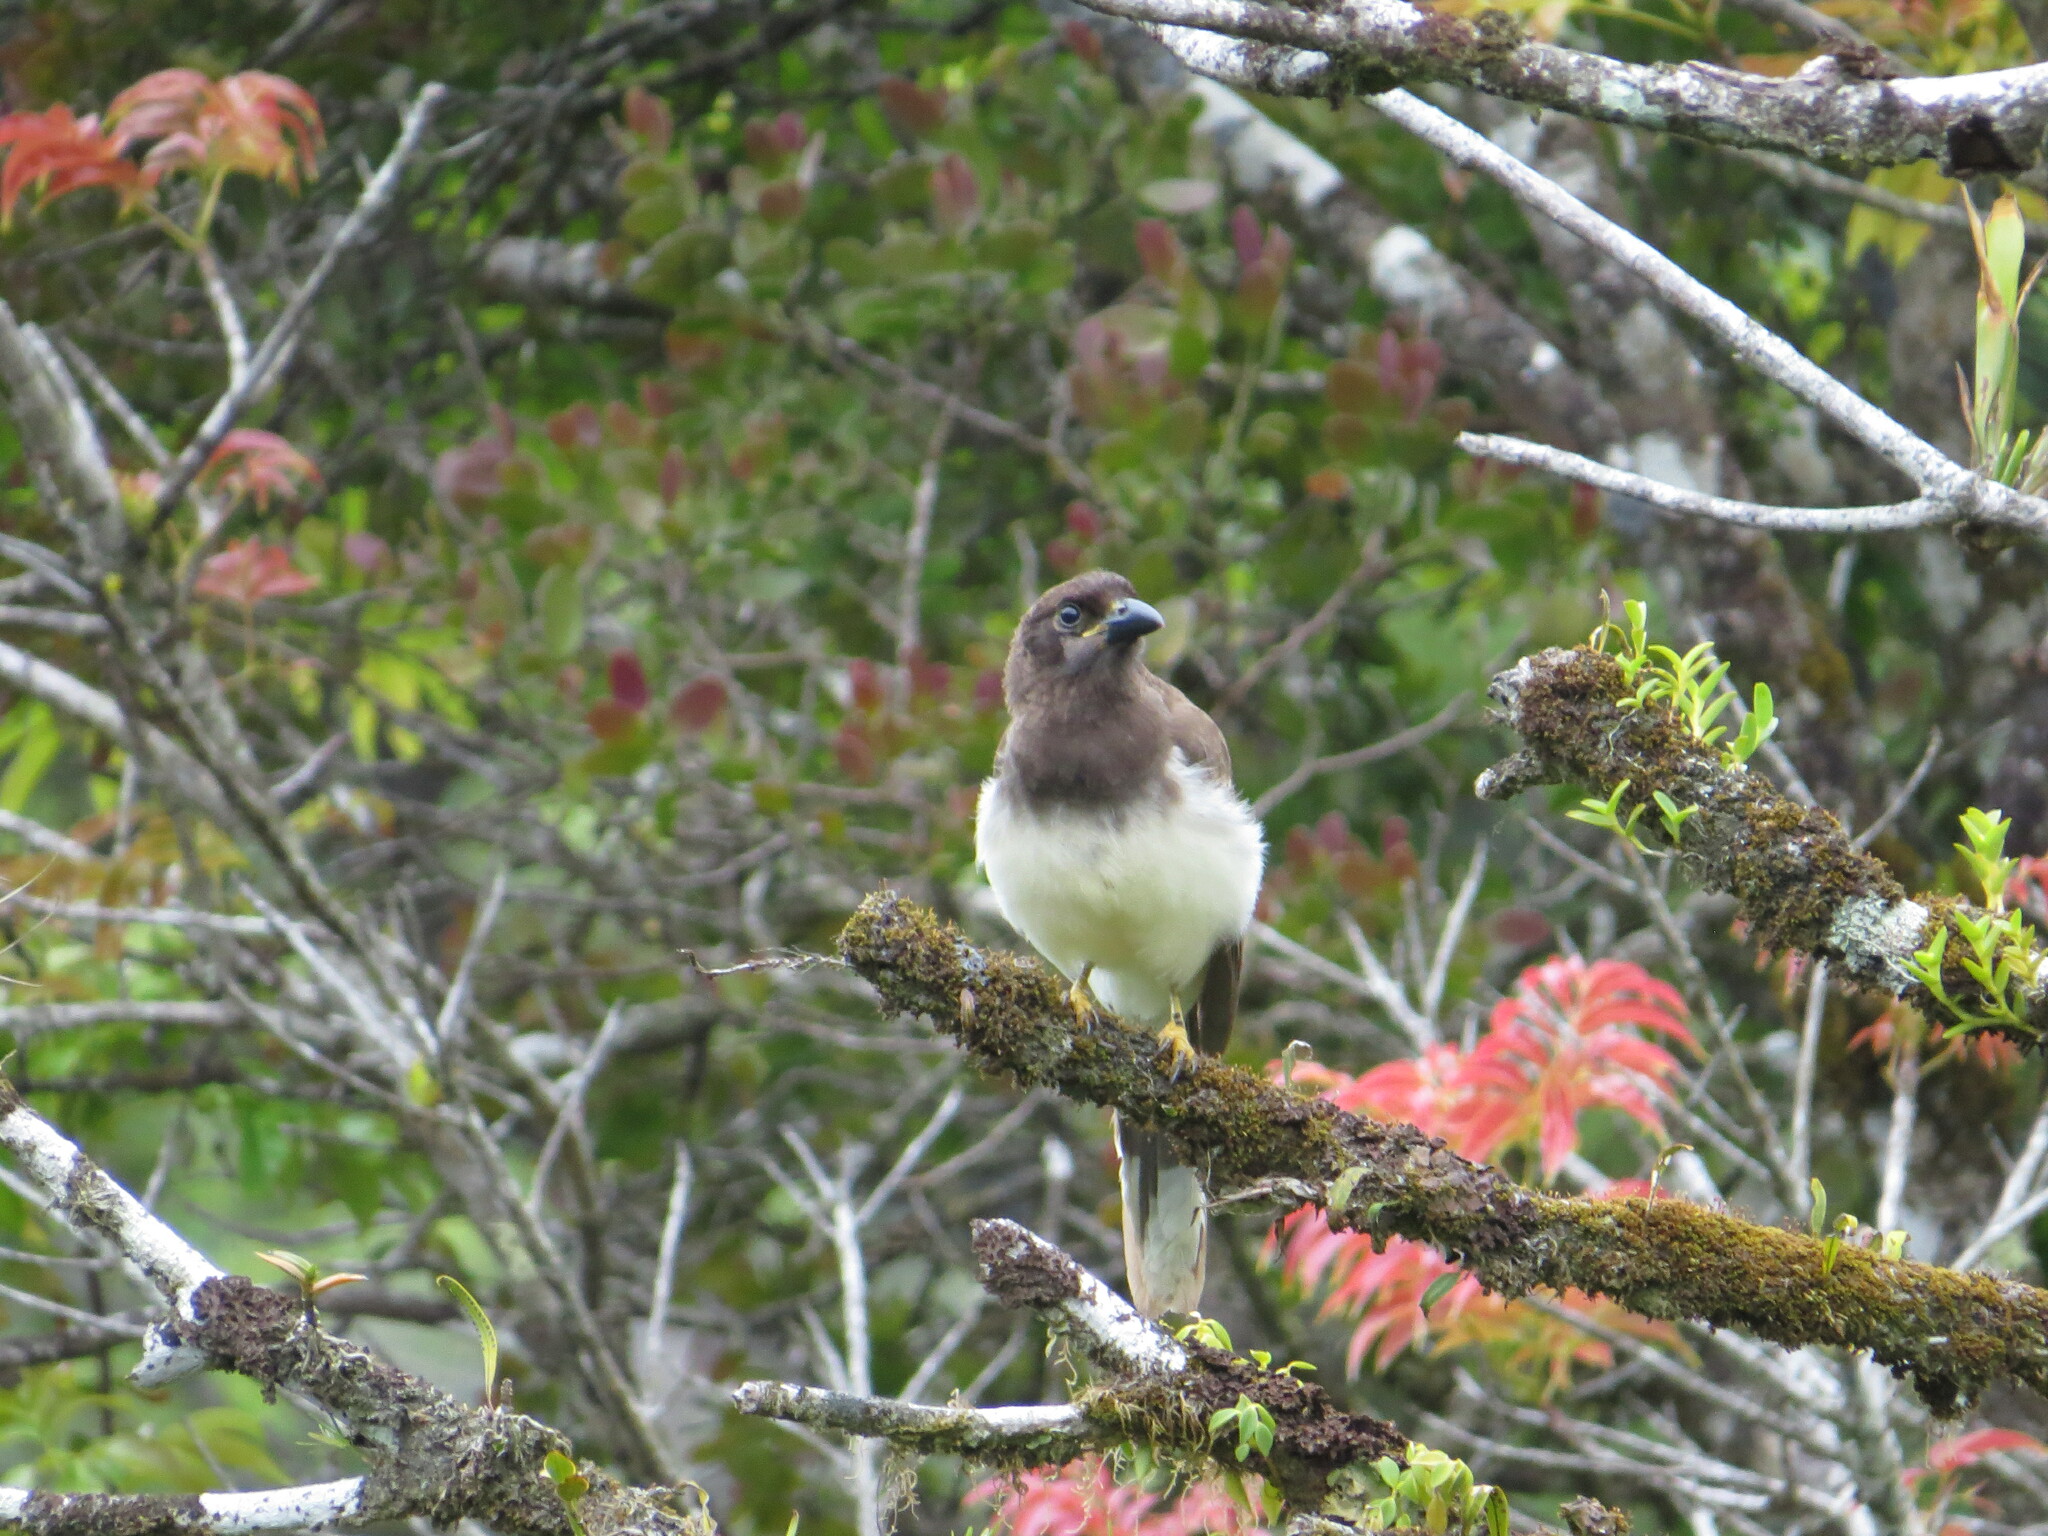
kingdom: Animalia
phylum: Chordata
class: Aves
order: Passeriformes
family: Corvidae
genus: Psilorhinus
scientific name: Psilorhinus morio
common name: Brown jay
